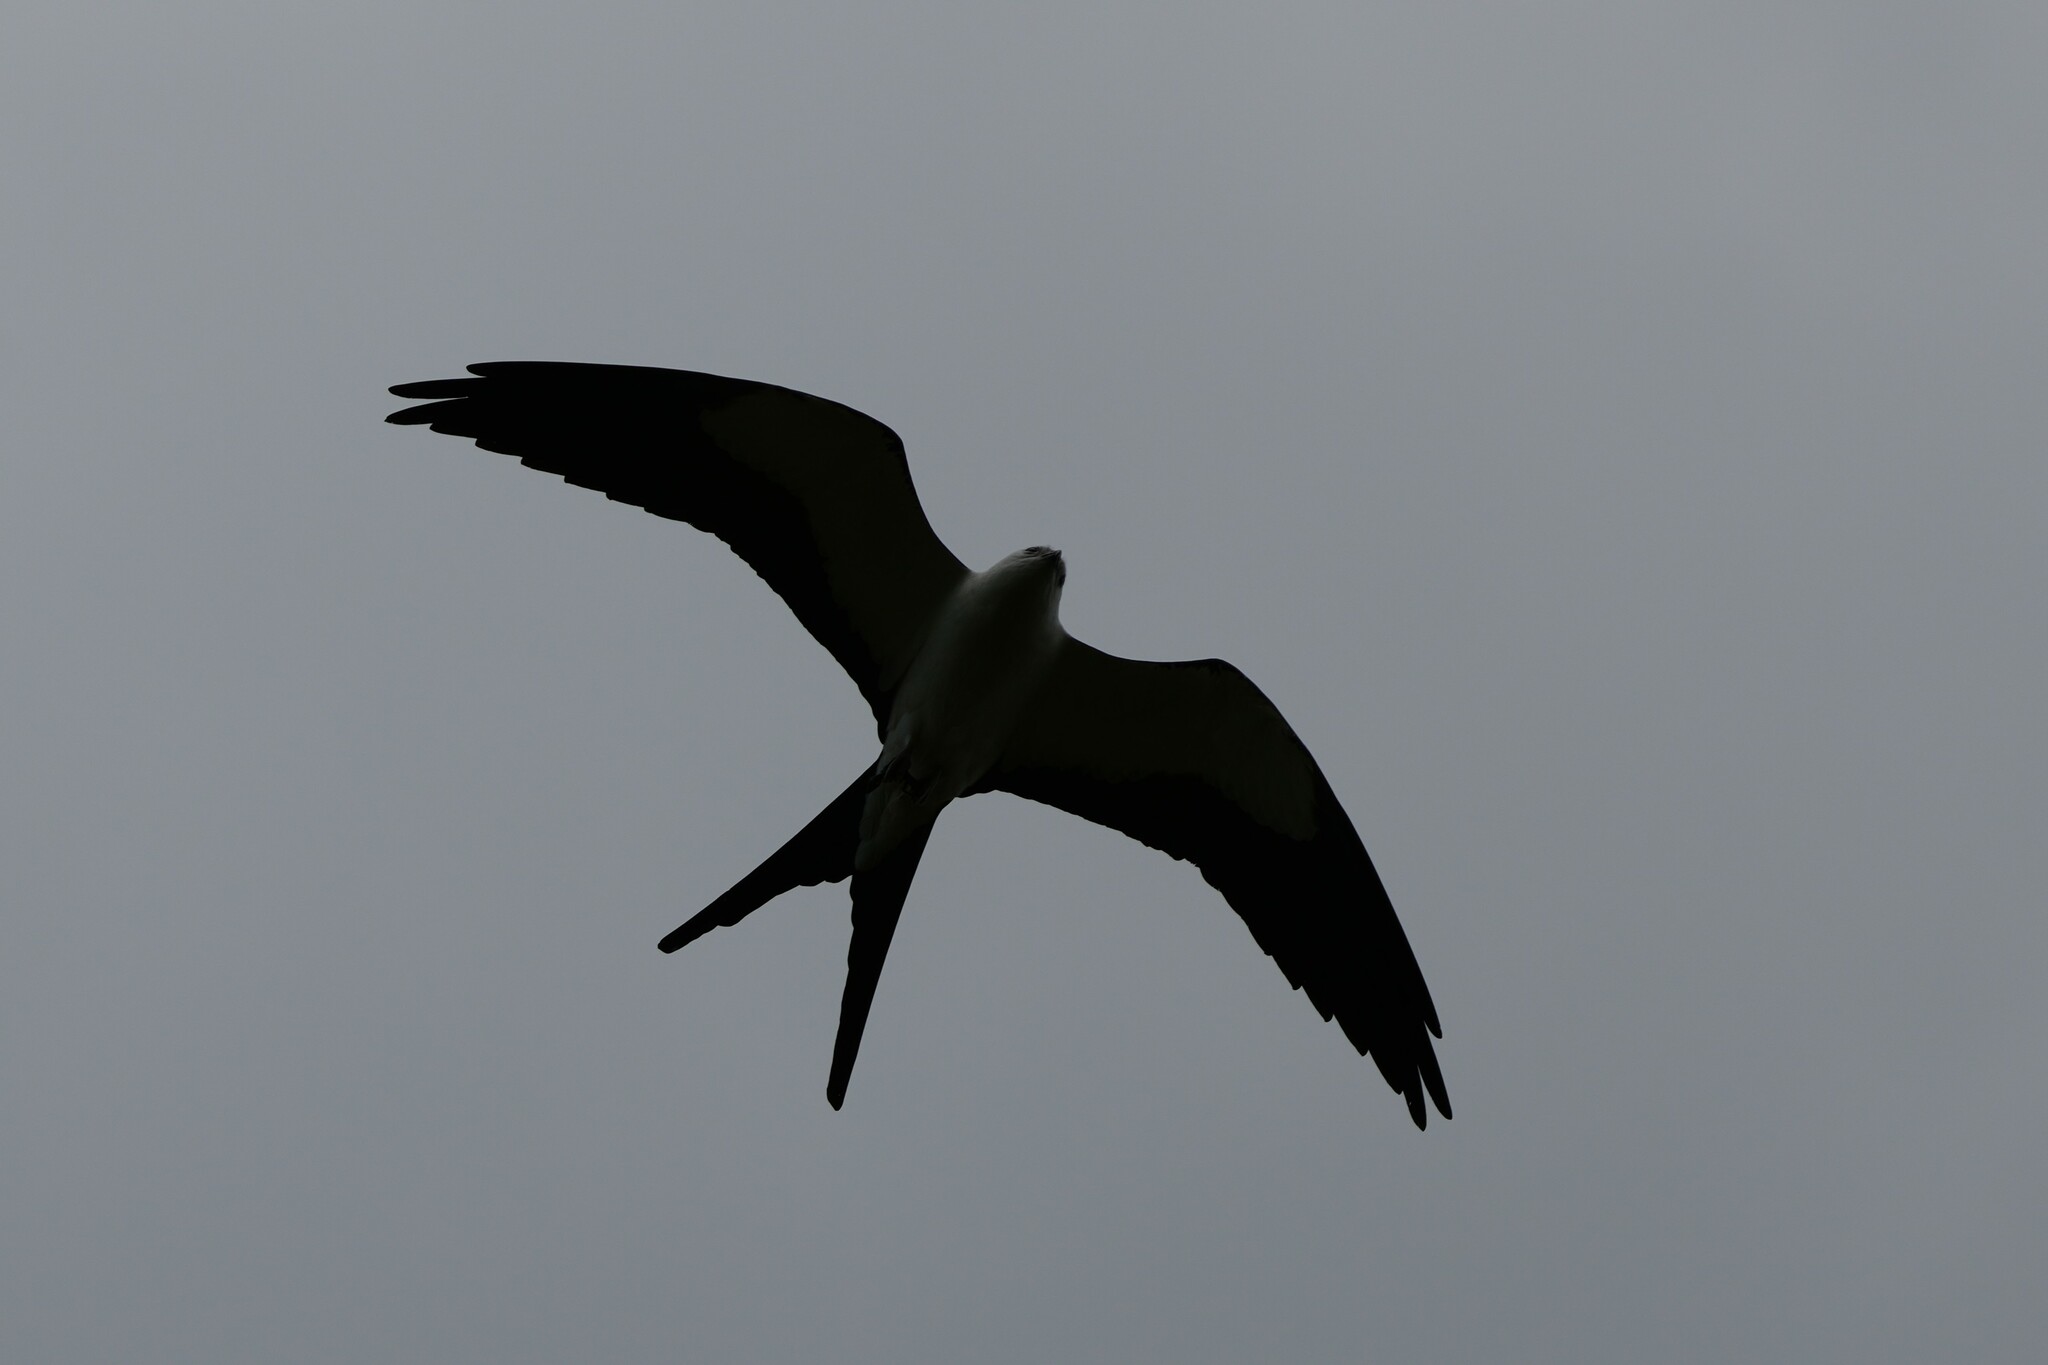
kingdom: Animalia
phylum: Chordata
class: Aves
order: Accipitriformes
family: Accipitridae
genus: Elanoides
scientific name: Elanoides forficatus
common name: Swallow-tailed kite
